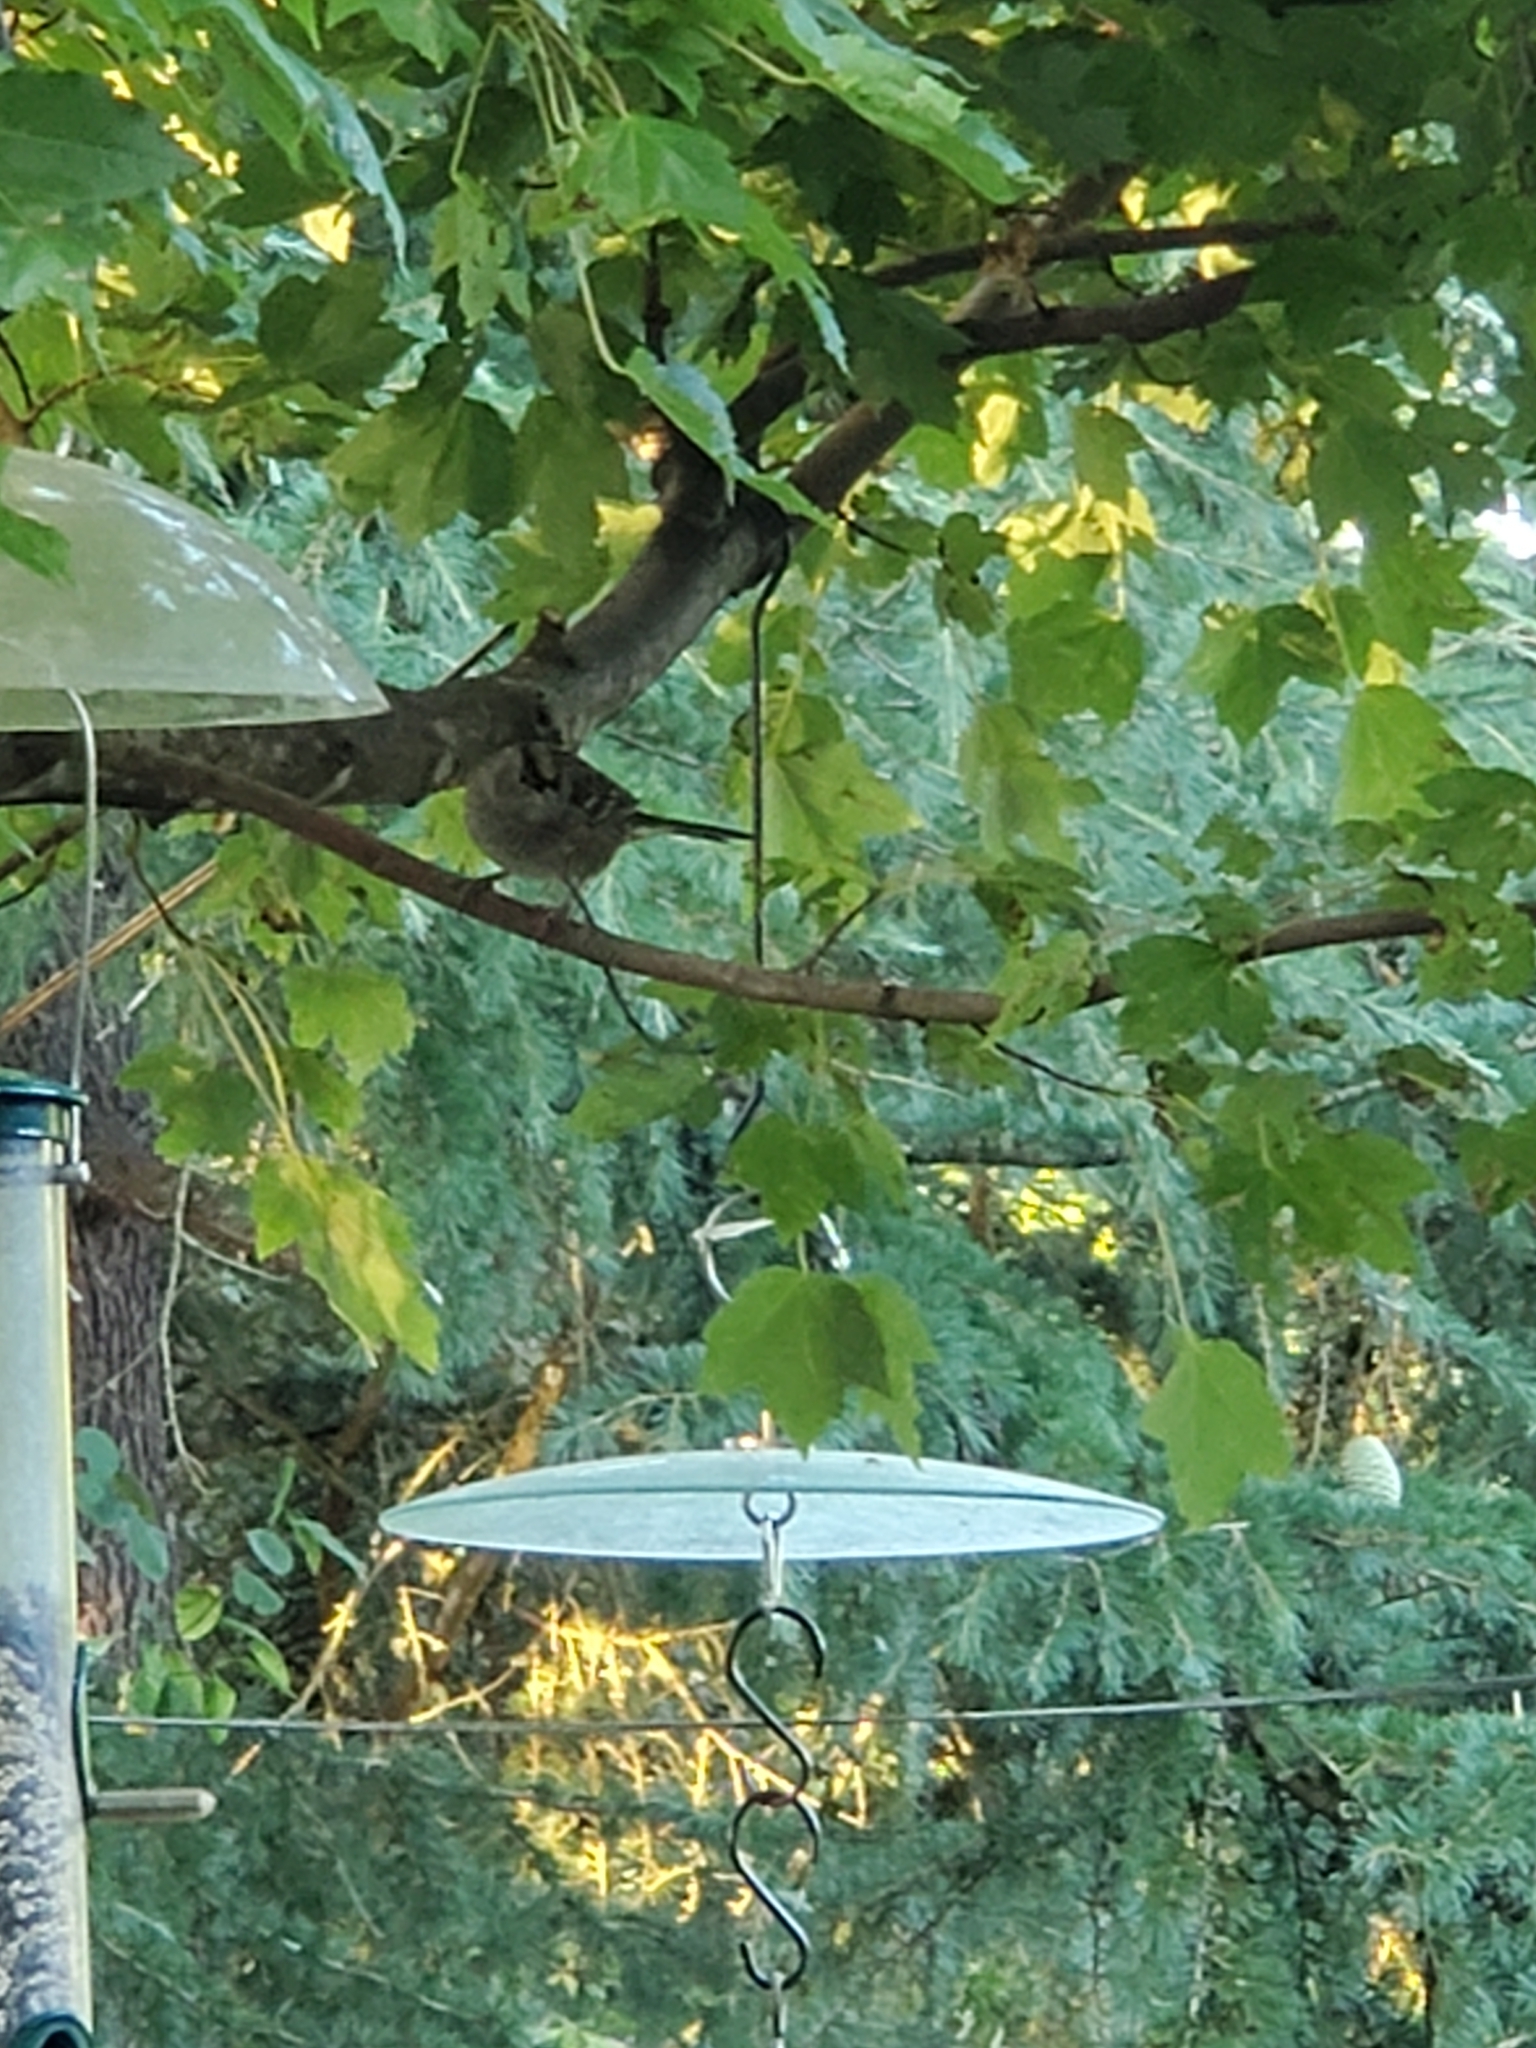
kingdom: Animalia
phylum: Chordata
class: Aves
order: Passeriformes
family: Passerellidae
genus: Zonotrichia
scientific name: Zonotrichia atricapilla
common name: Golden-crowned sparrow
